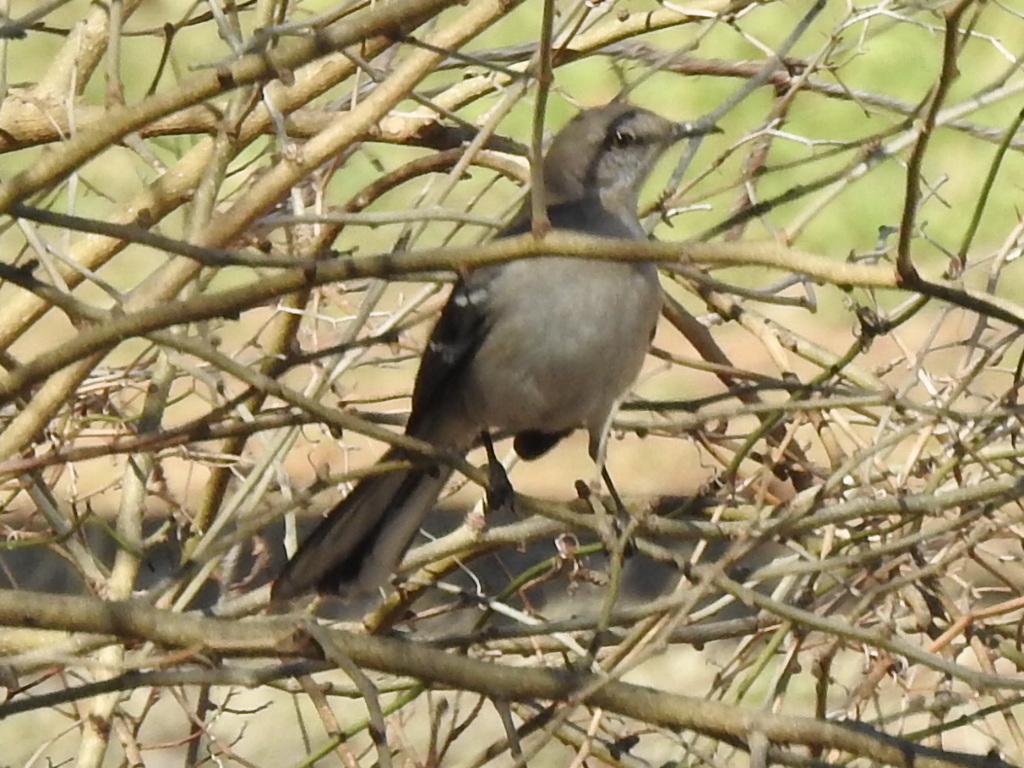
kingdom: Animalia
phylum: Chordata
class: Aves
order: Passeriformes
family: Mimidae
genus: Mimus
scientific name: Mimus polyglottos
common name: Northern mockingbird
